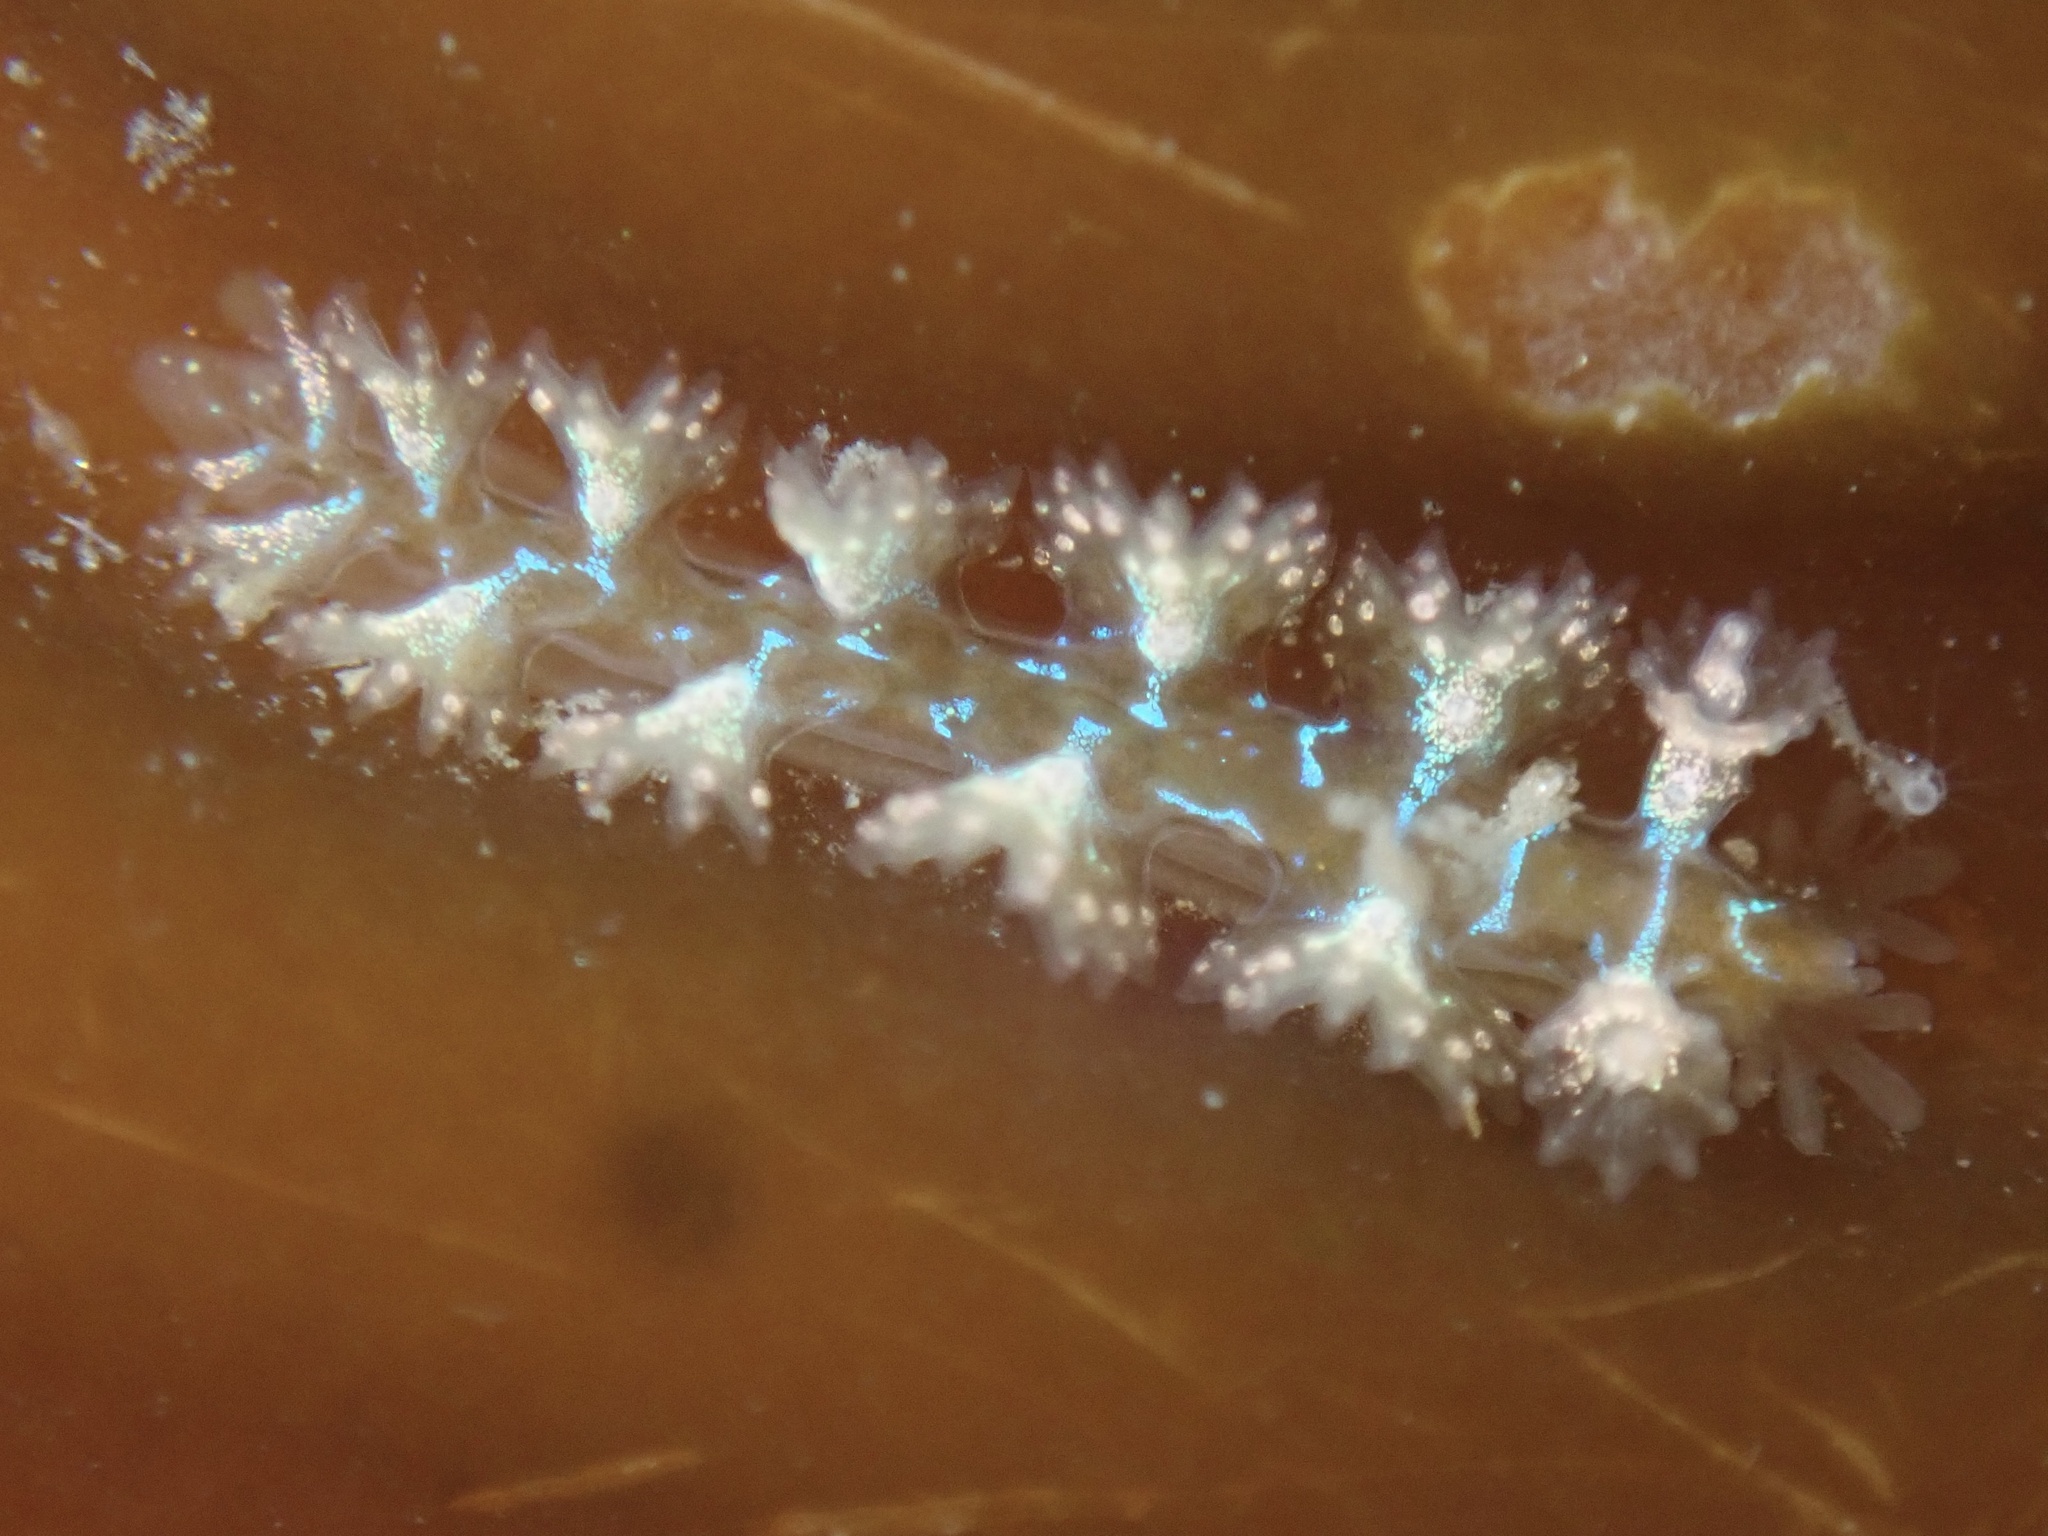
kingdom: Animalia
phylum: Mollusca
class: Gastropoda
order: Nudibranchia
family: Hancockiidae
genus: Hancockia
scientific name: Hancockia californica
